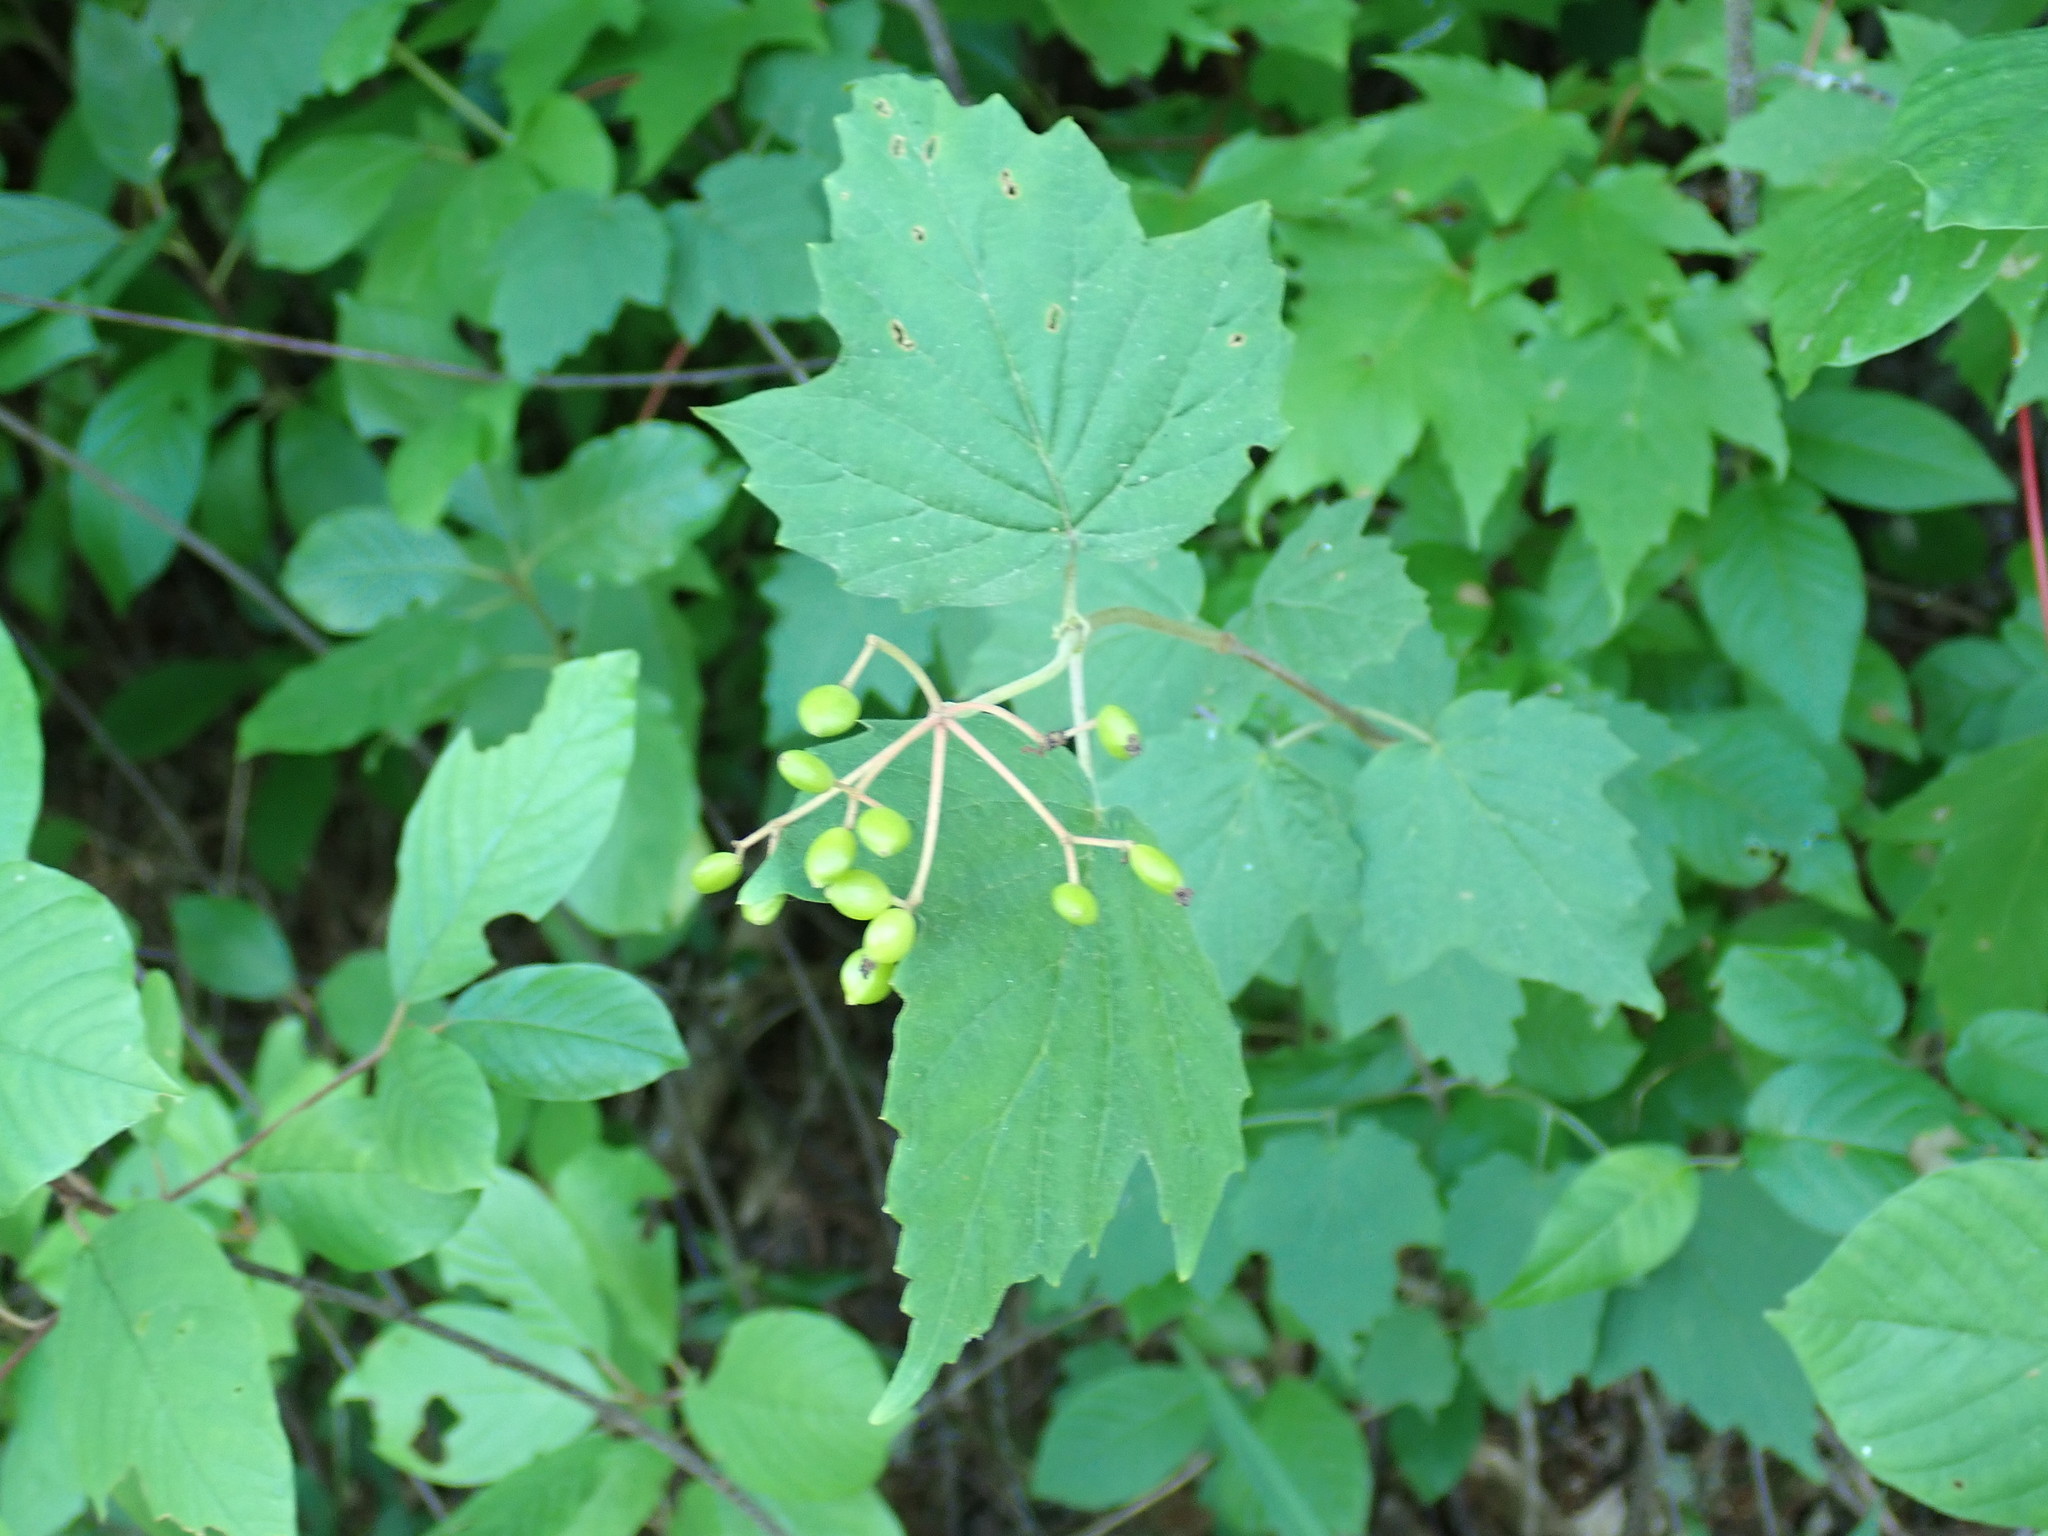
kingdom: Plantae
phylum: Tracheophyta
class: Magnoliopsida
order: Dipsacales
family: Viburnaceae
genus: Viburnum
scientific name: Viburnum acerifolium
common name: Dockmackie
